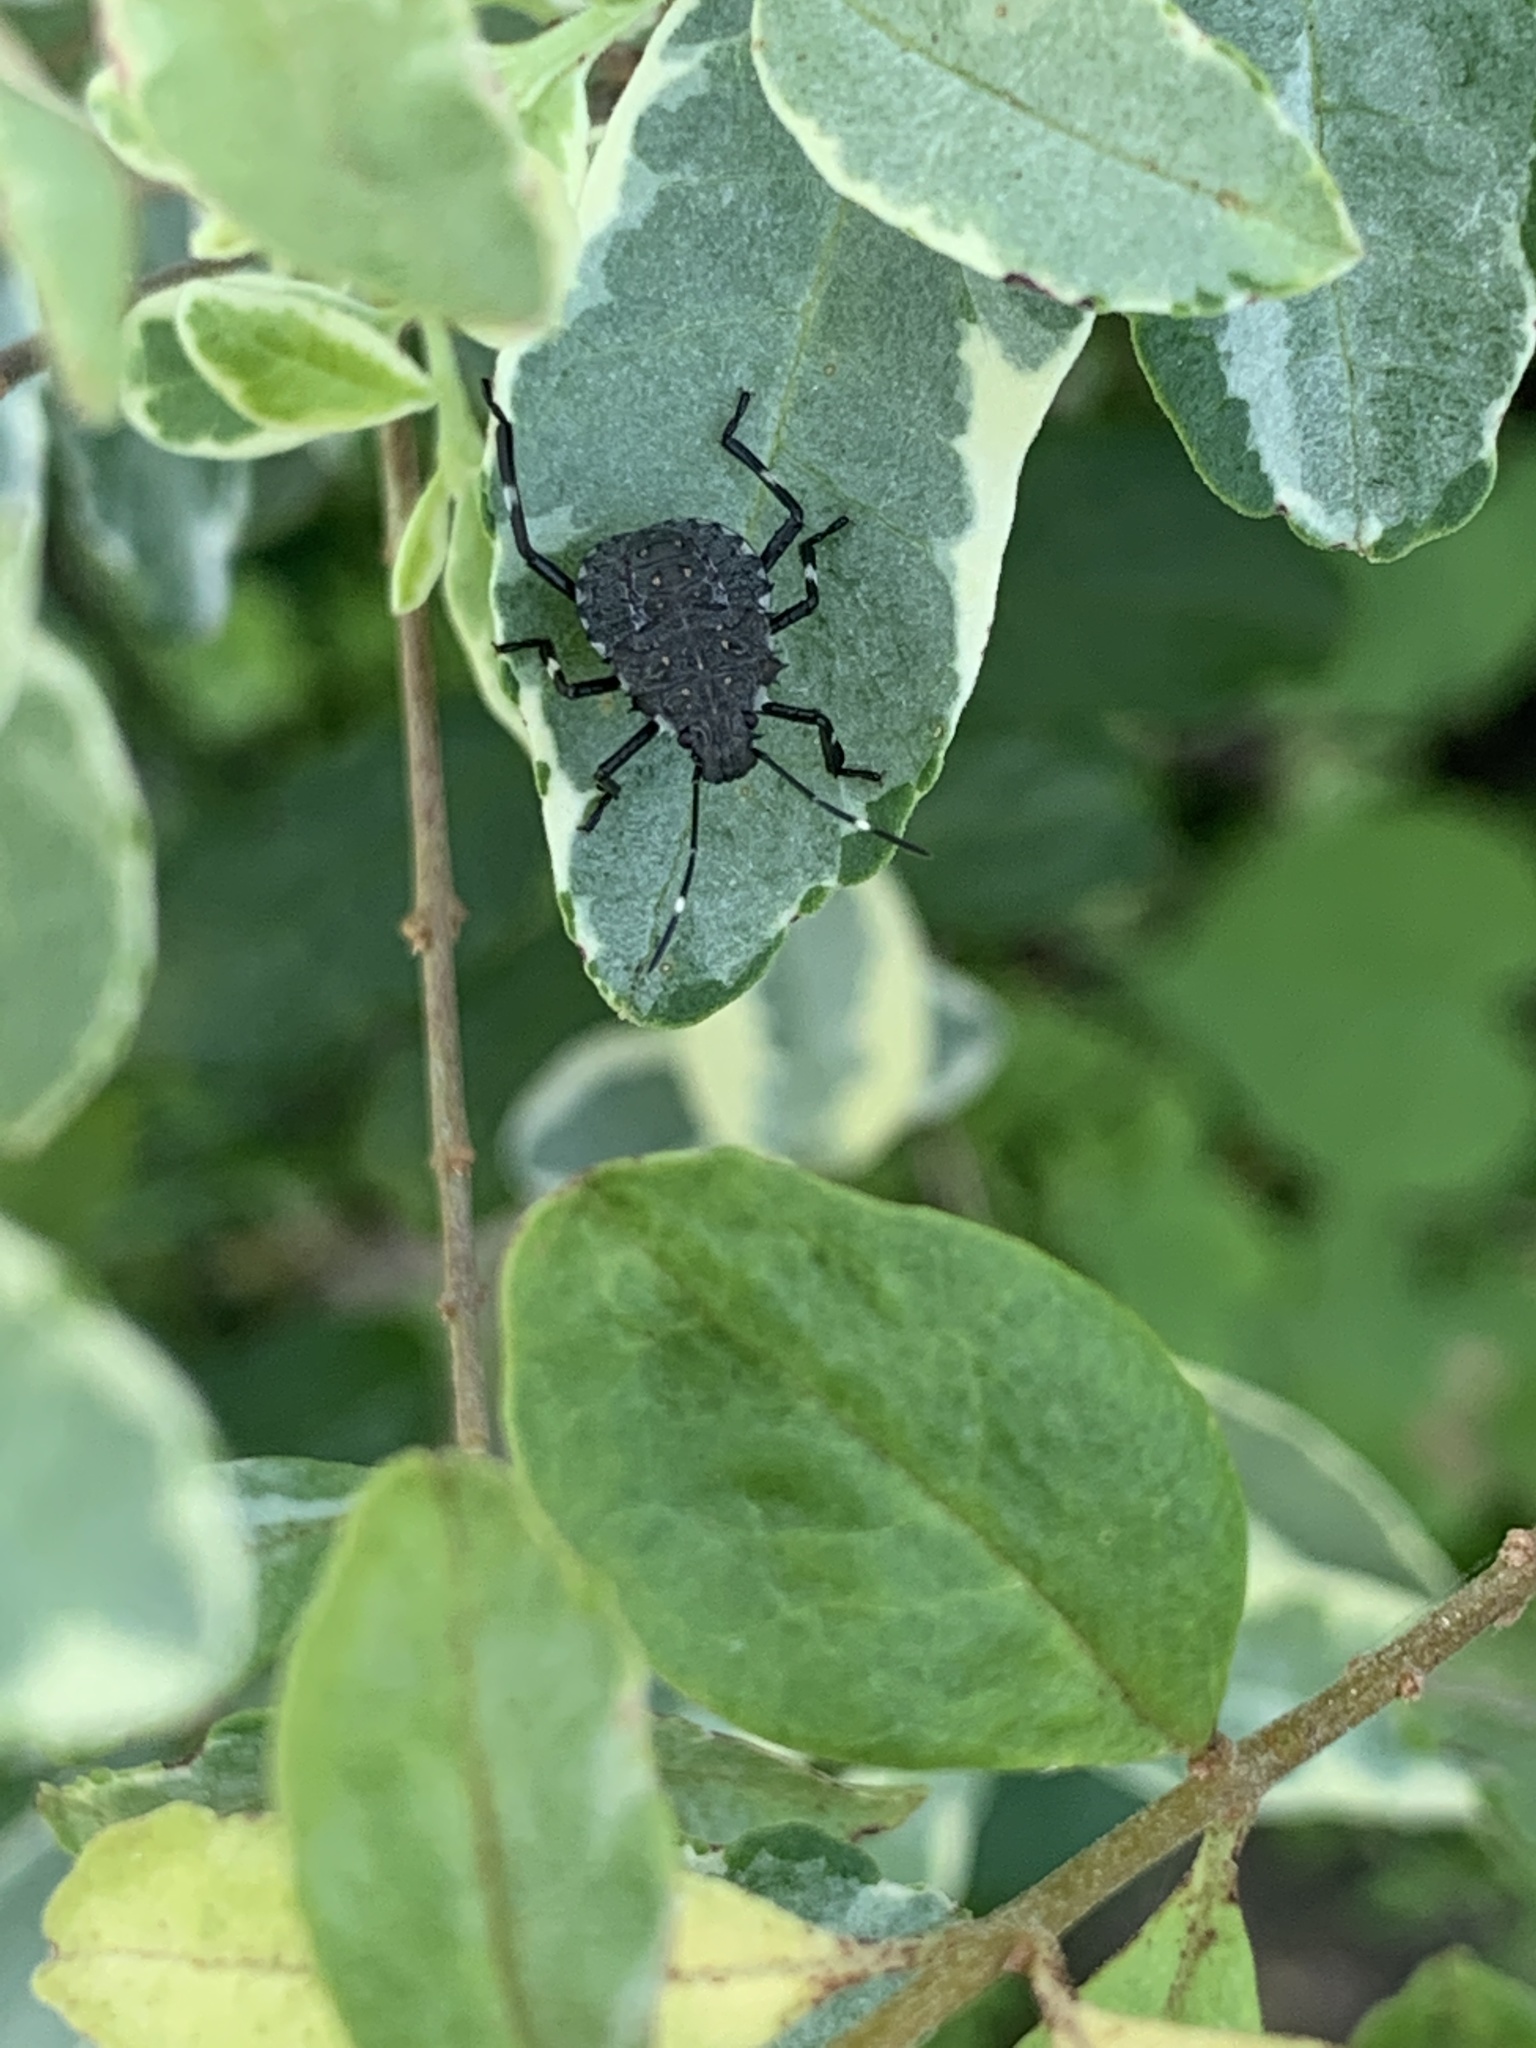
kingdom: Animalia
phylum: Arthropoda
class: Insecta
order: Hemiptera
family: Pentatomidae
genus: Halyomorpha
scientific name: Halyomorpha halys
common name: Brown marmorated stink bug
